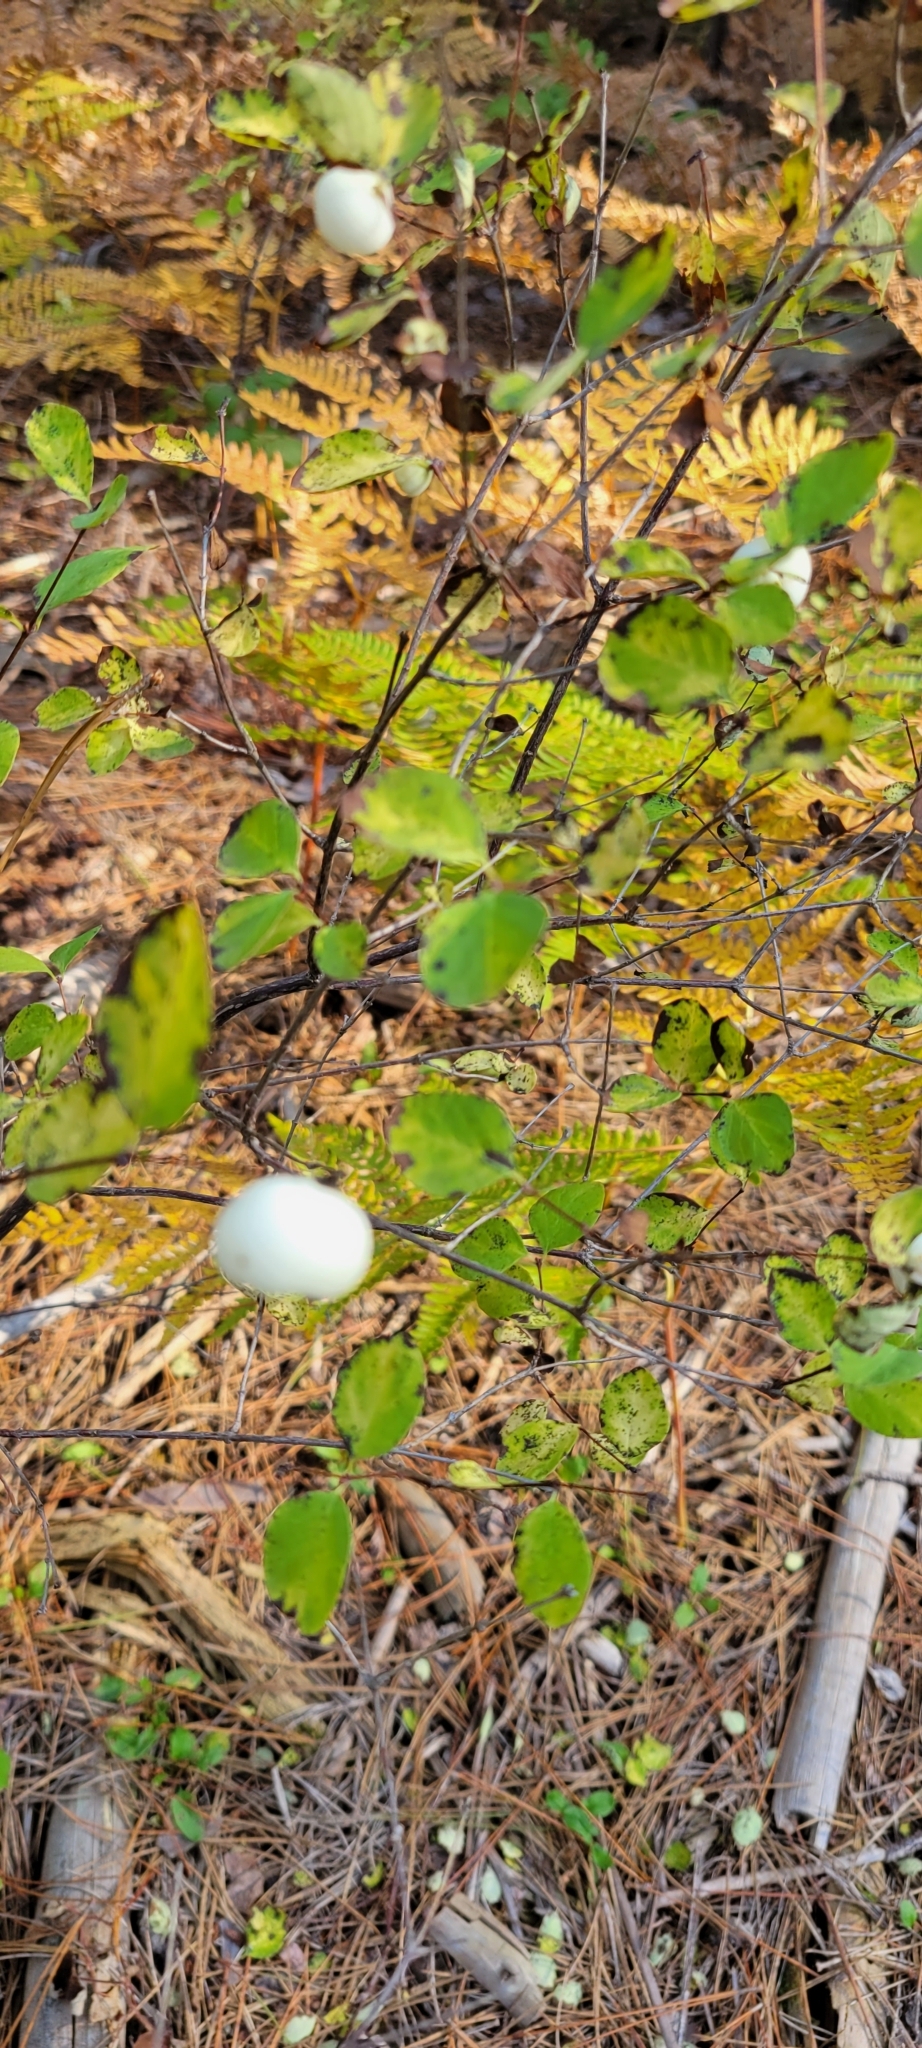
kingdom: Plantae
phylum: Tracheophyta
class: Magnoliopsida
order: Dipsacales
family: Caprifoliaceae
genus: Symphoricarpos
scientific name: Symphoricarpos albus
